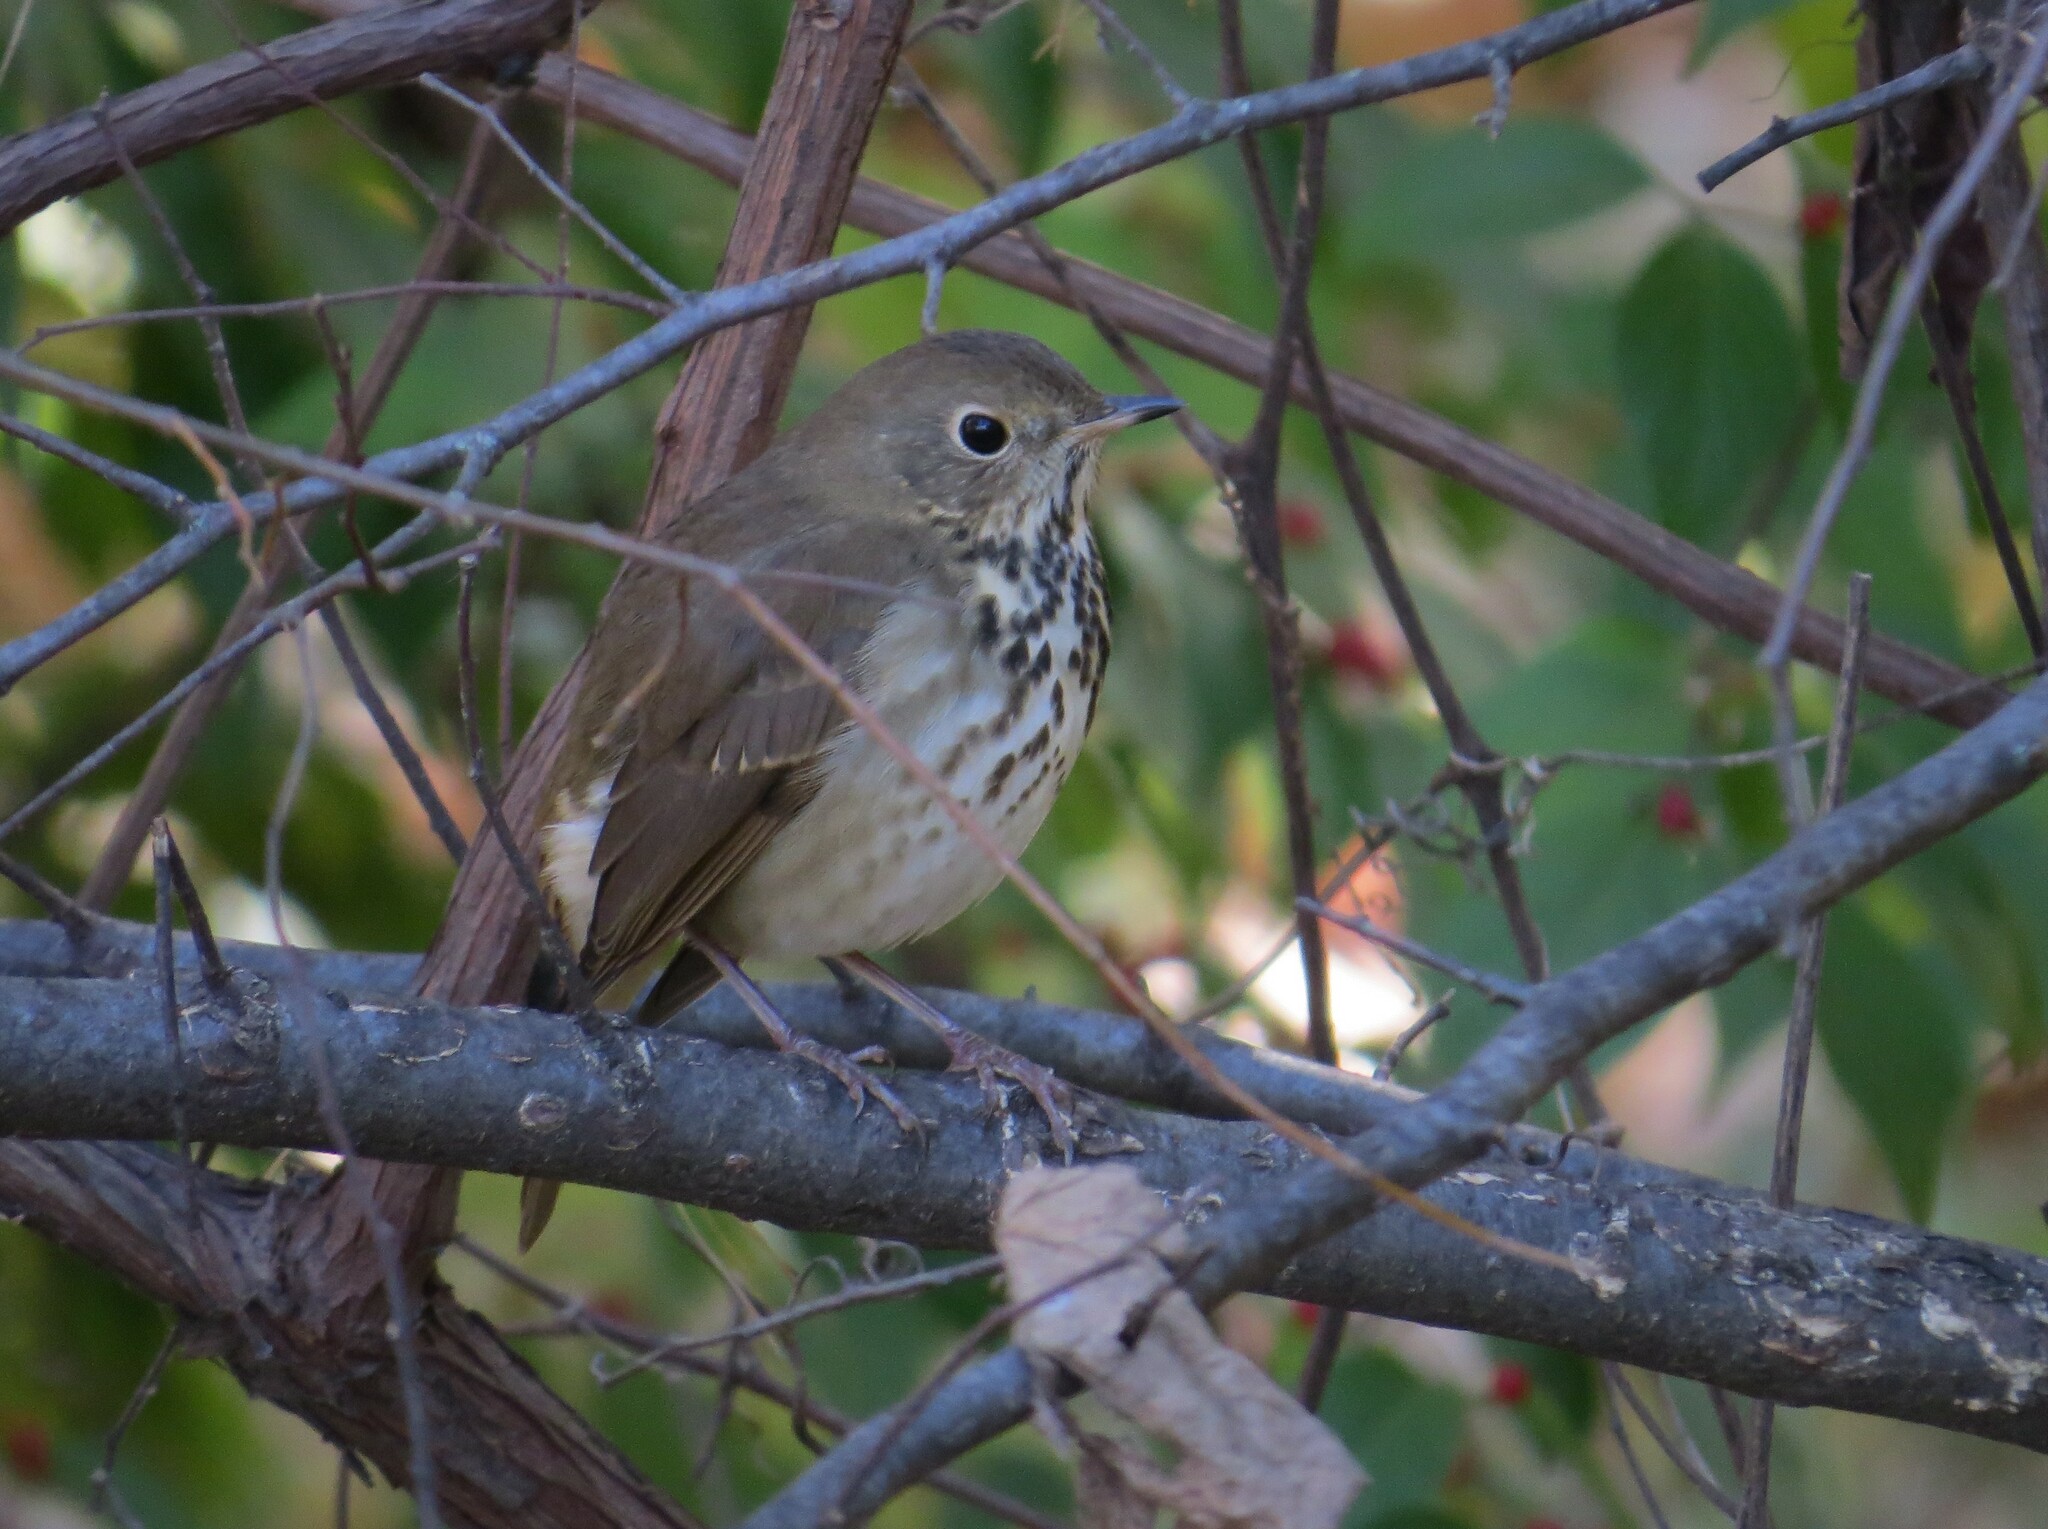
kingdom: Animalia
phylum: Chordata
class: Aves
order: Passeriformes
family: Turdidae
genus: Catharus
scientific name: Catharus guttatus
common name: Hermit thrush
